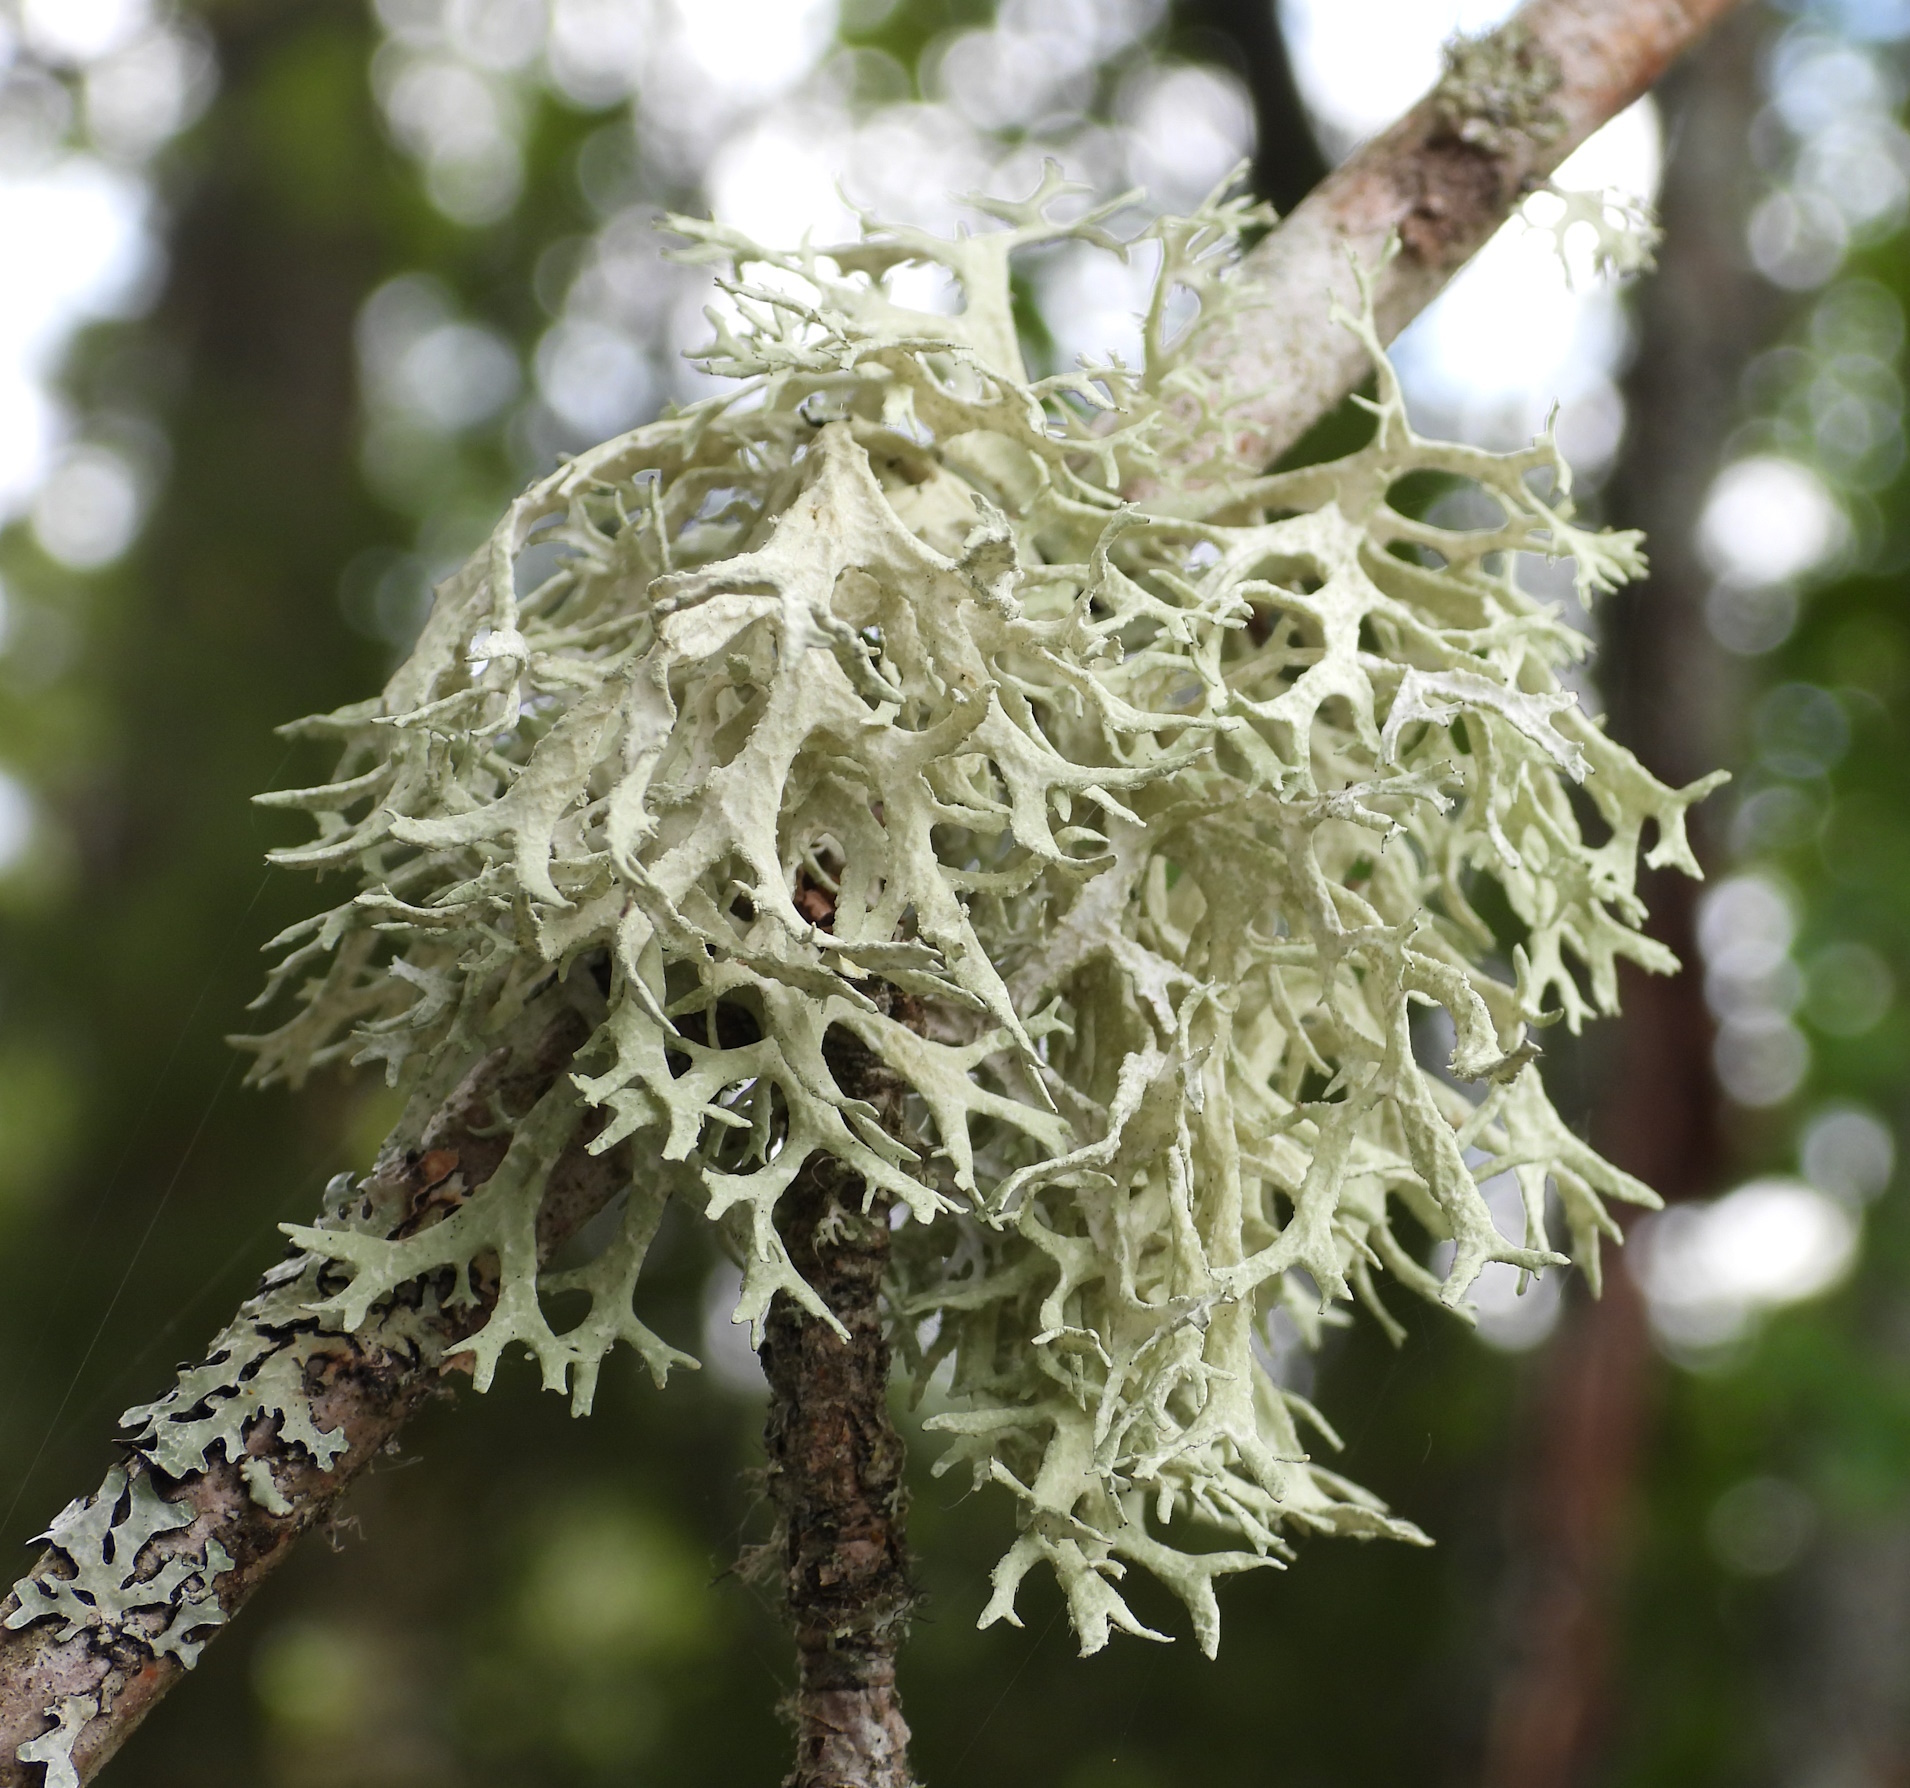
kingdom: Fungi
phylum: Ascomycota
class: Lecanoromycetes
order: Lecanorales
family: Parmeliaceae
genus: Evernia
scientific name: Evernia prunastri
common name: Oak moss
